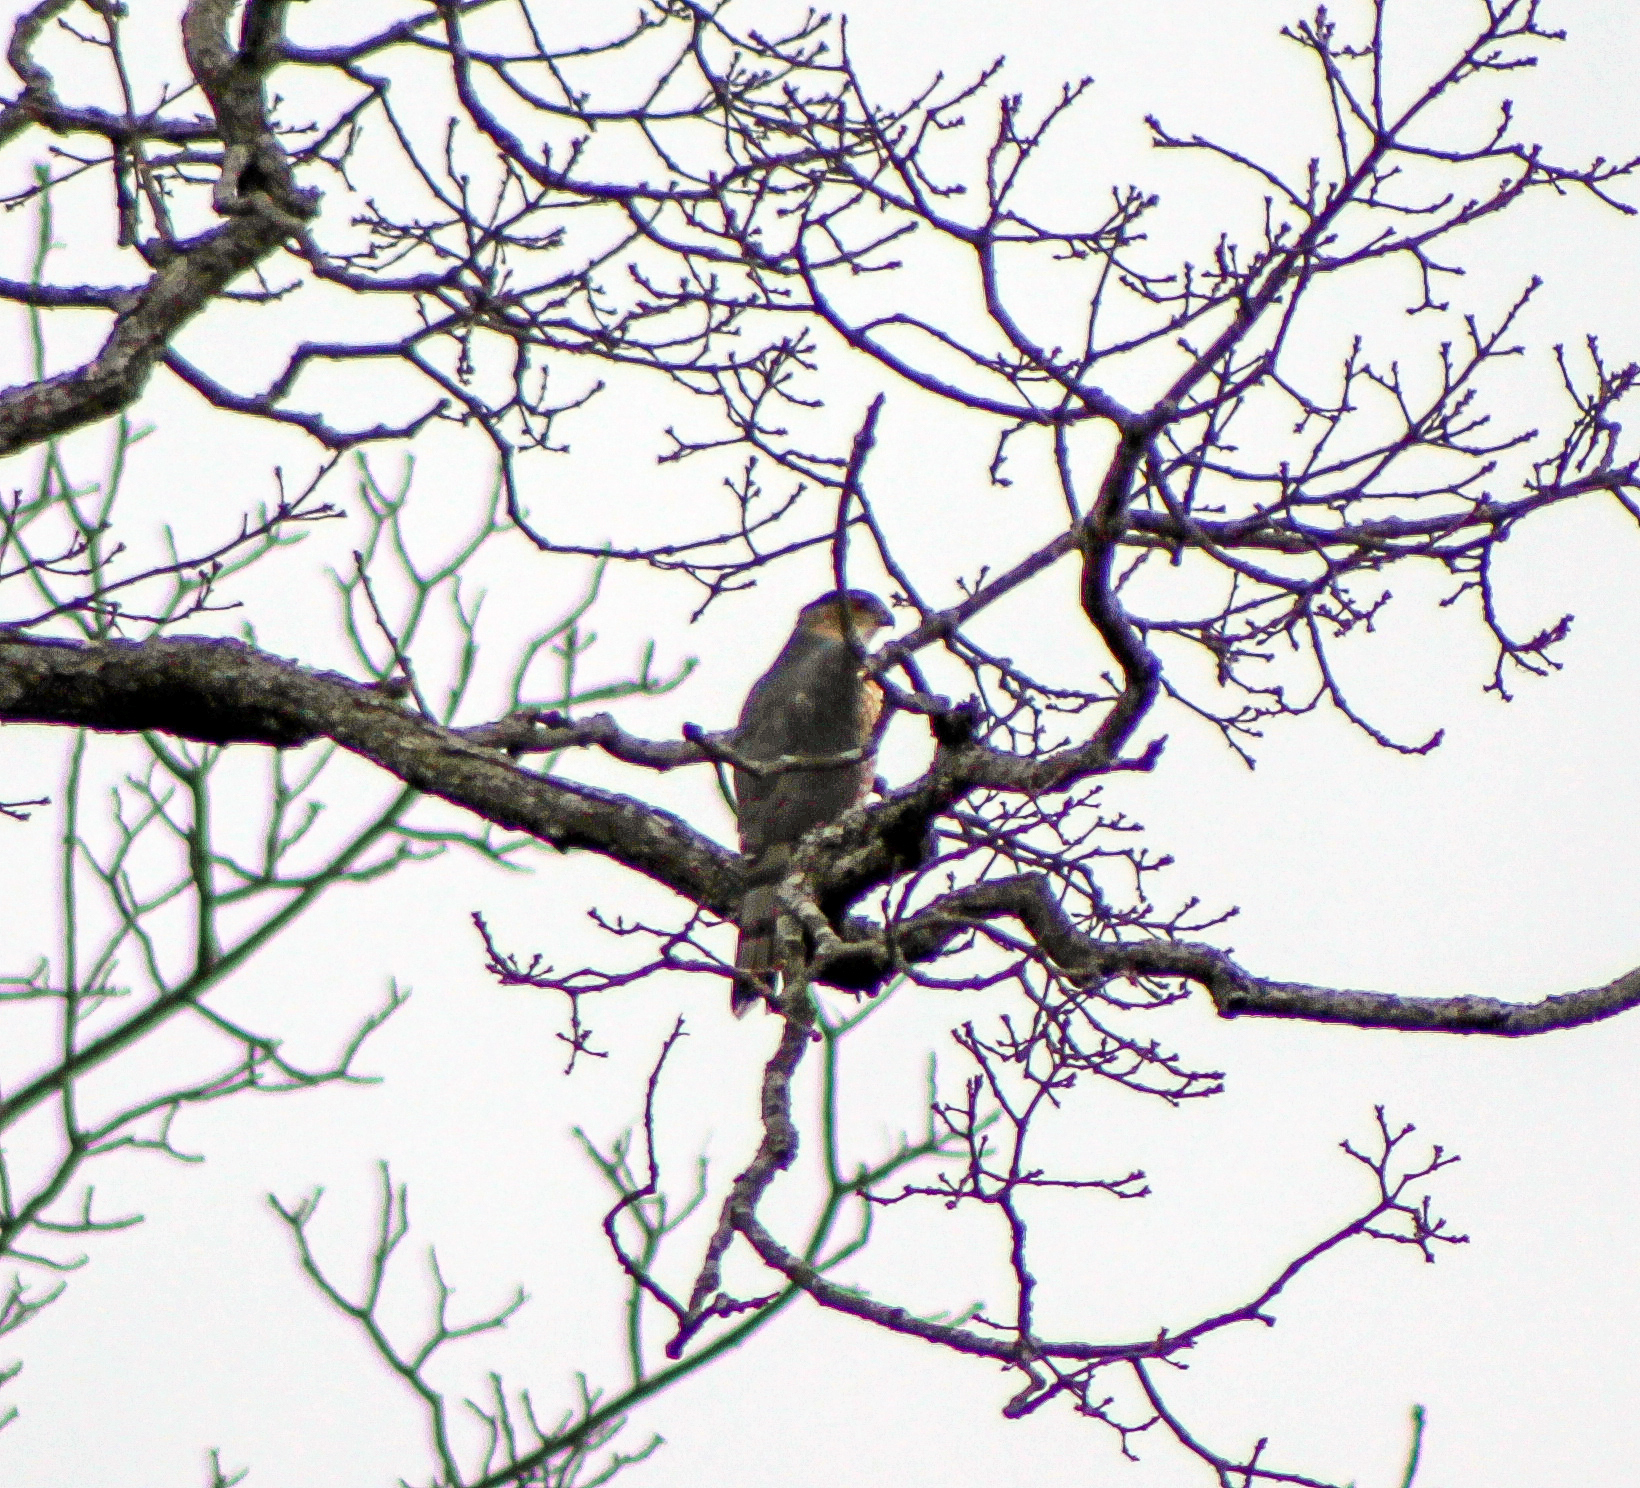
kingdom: Animalia
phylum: Chordata
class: Aves
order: Accipitriformes
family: Accipitridae
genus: Accipiter
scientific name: Accipiter cooperii
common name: Cooper's hawk
